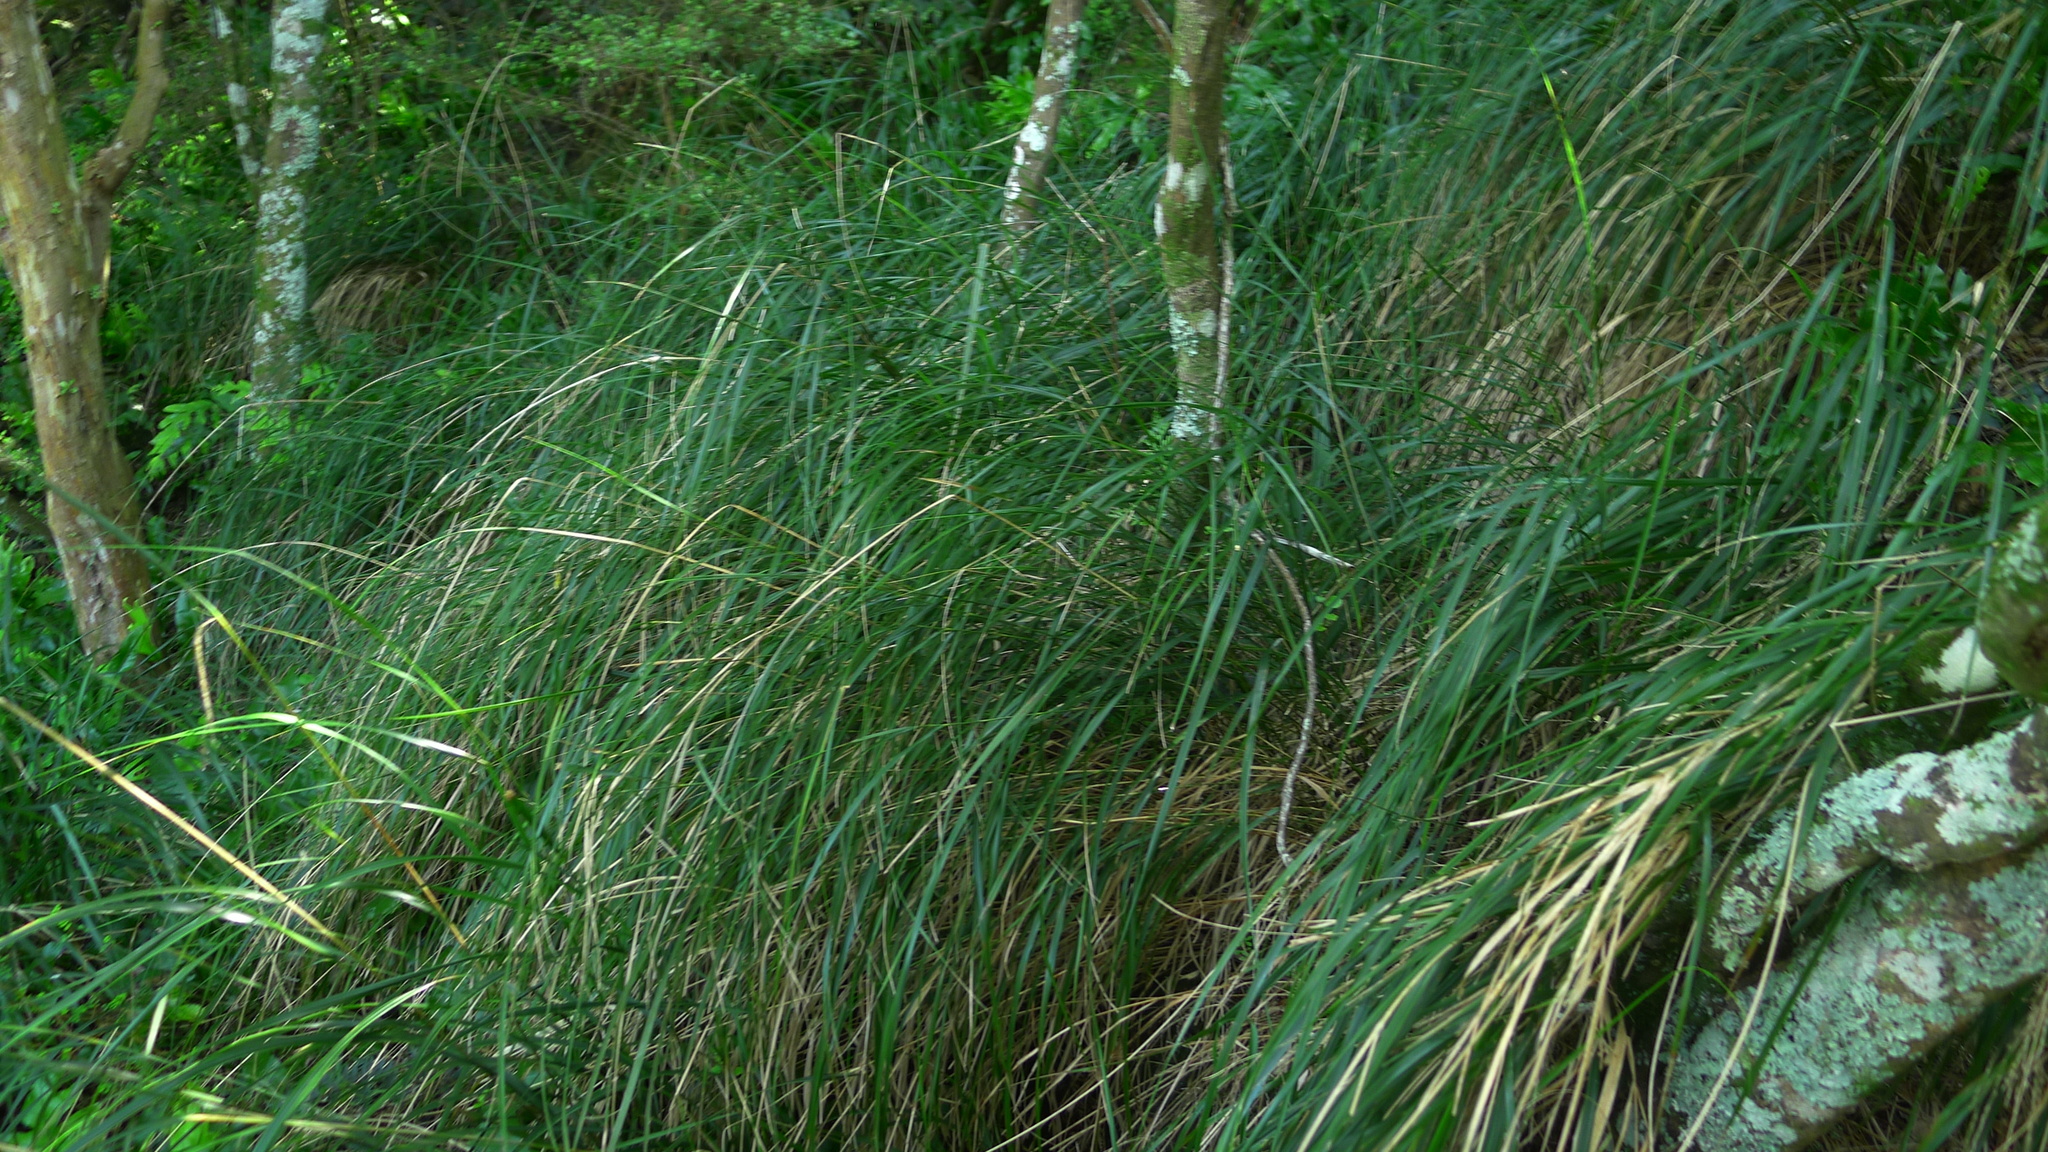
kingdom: Plantae
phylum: Tracheophyta
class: Liliopsida
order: Poales
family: Poaceae
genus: Anemanthele
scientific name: Anemanthele lessoniana
